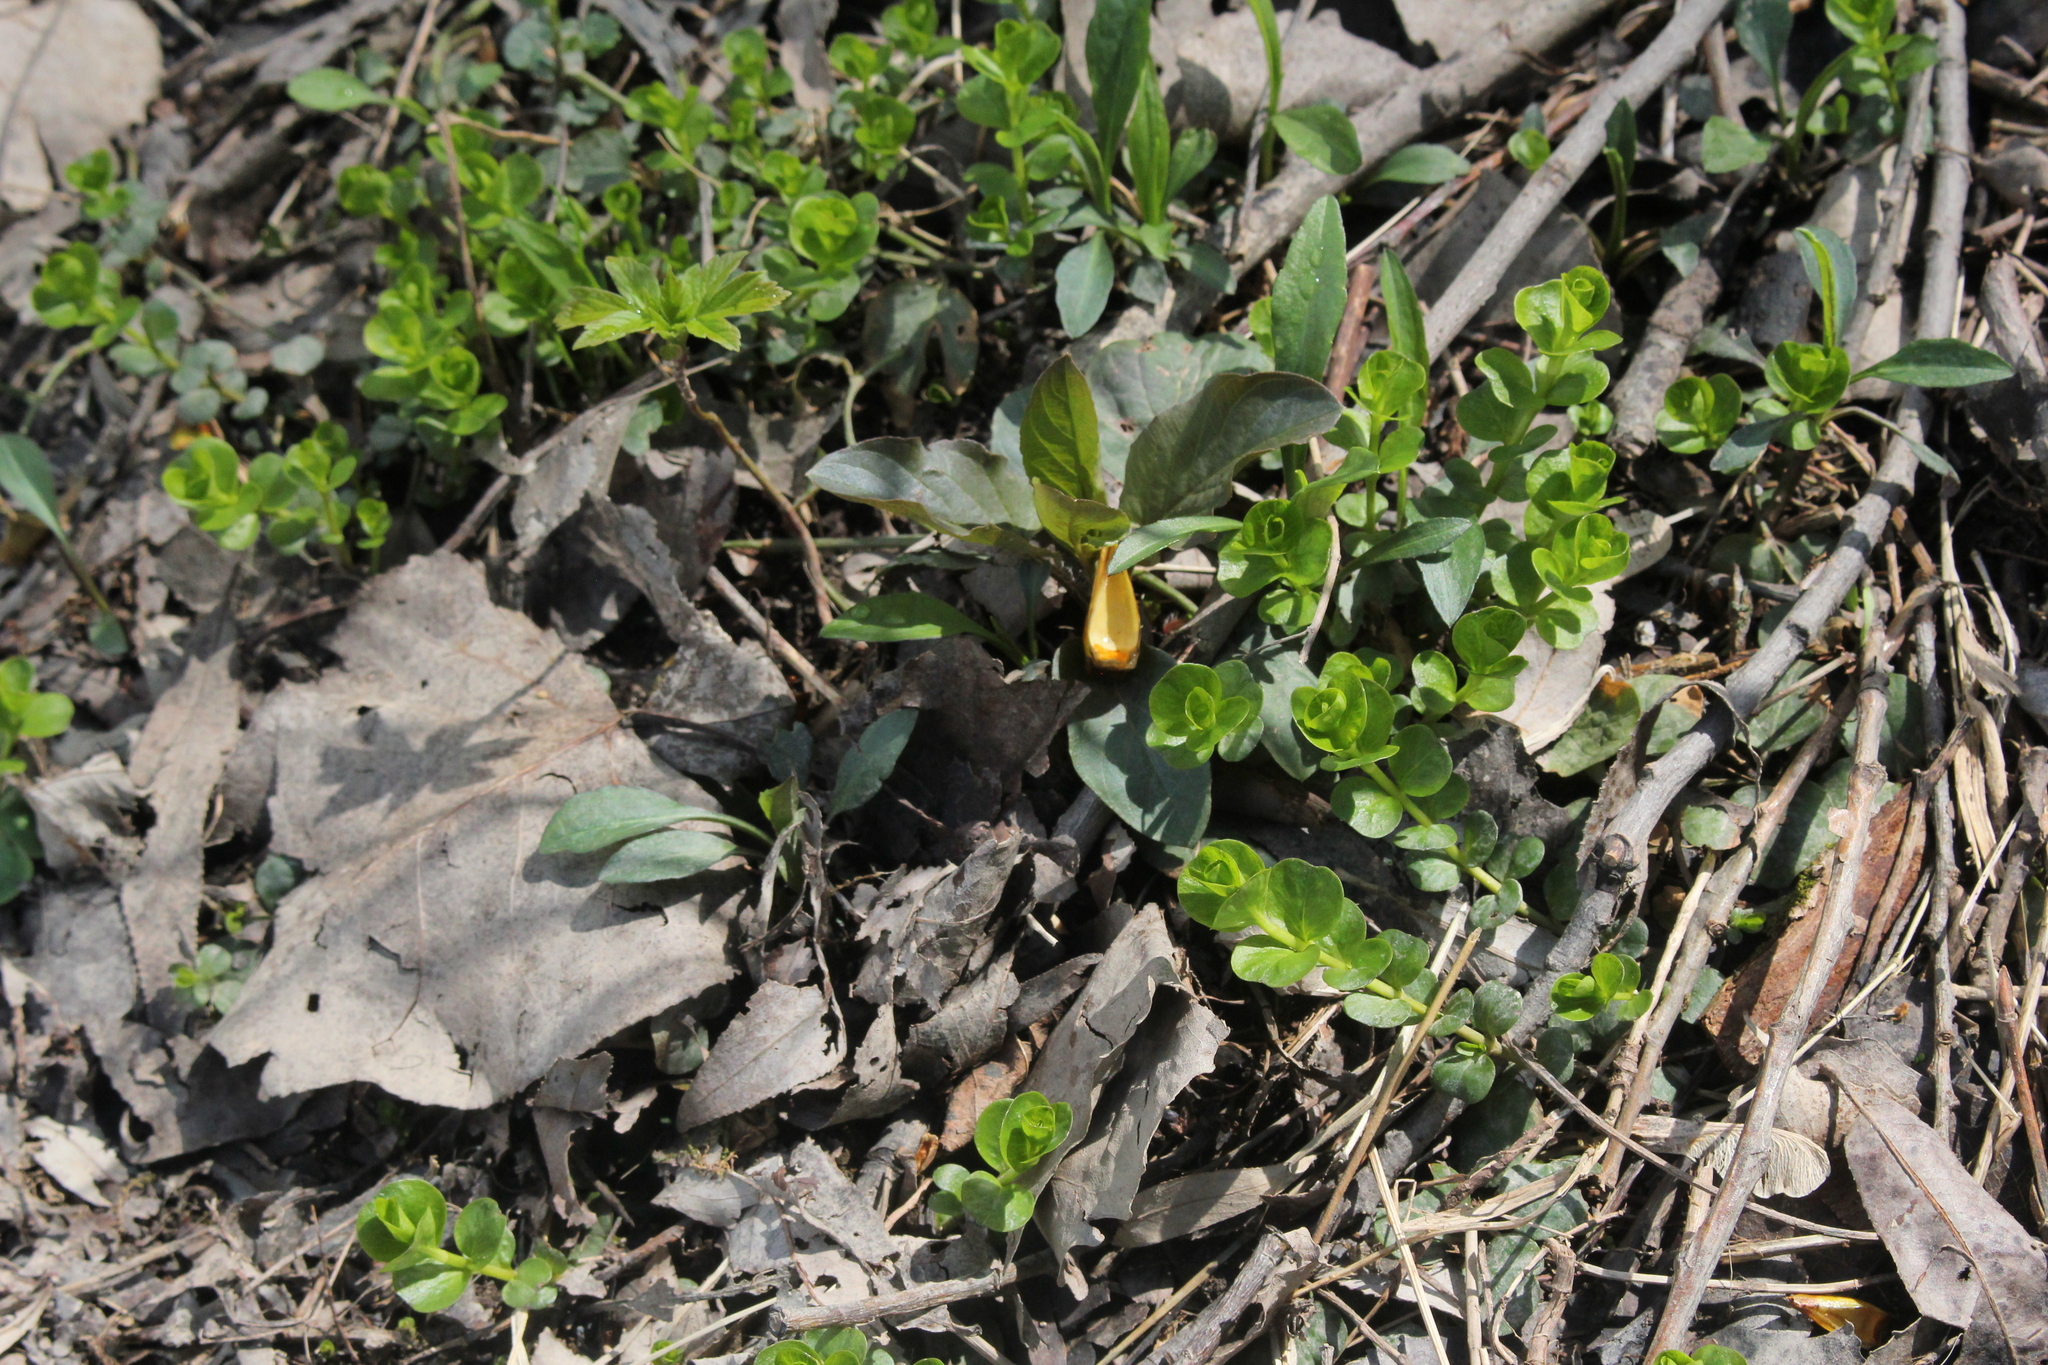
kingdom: Plantae
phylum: Tracheophyta
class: Magnoliopsida
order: Ericales
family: Primulaceae
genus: Lysimachia
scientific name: Lysimachia nummularia
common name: Moneywort
